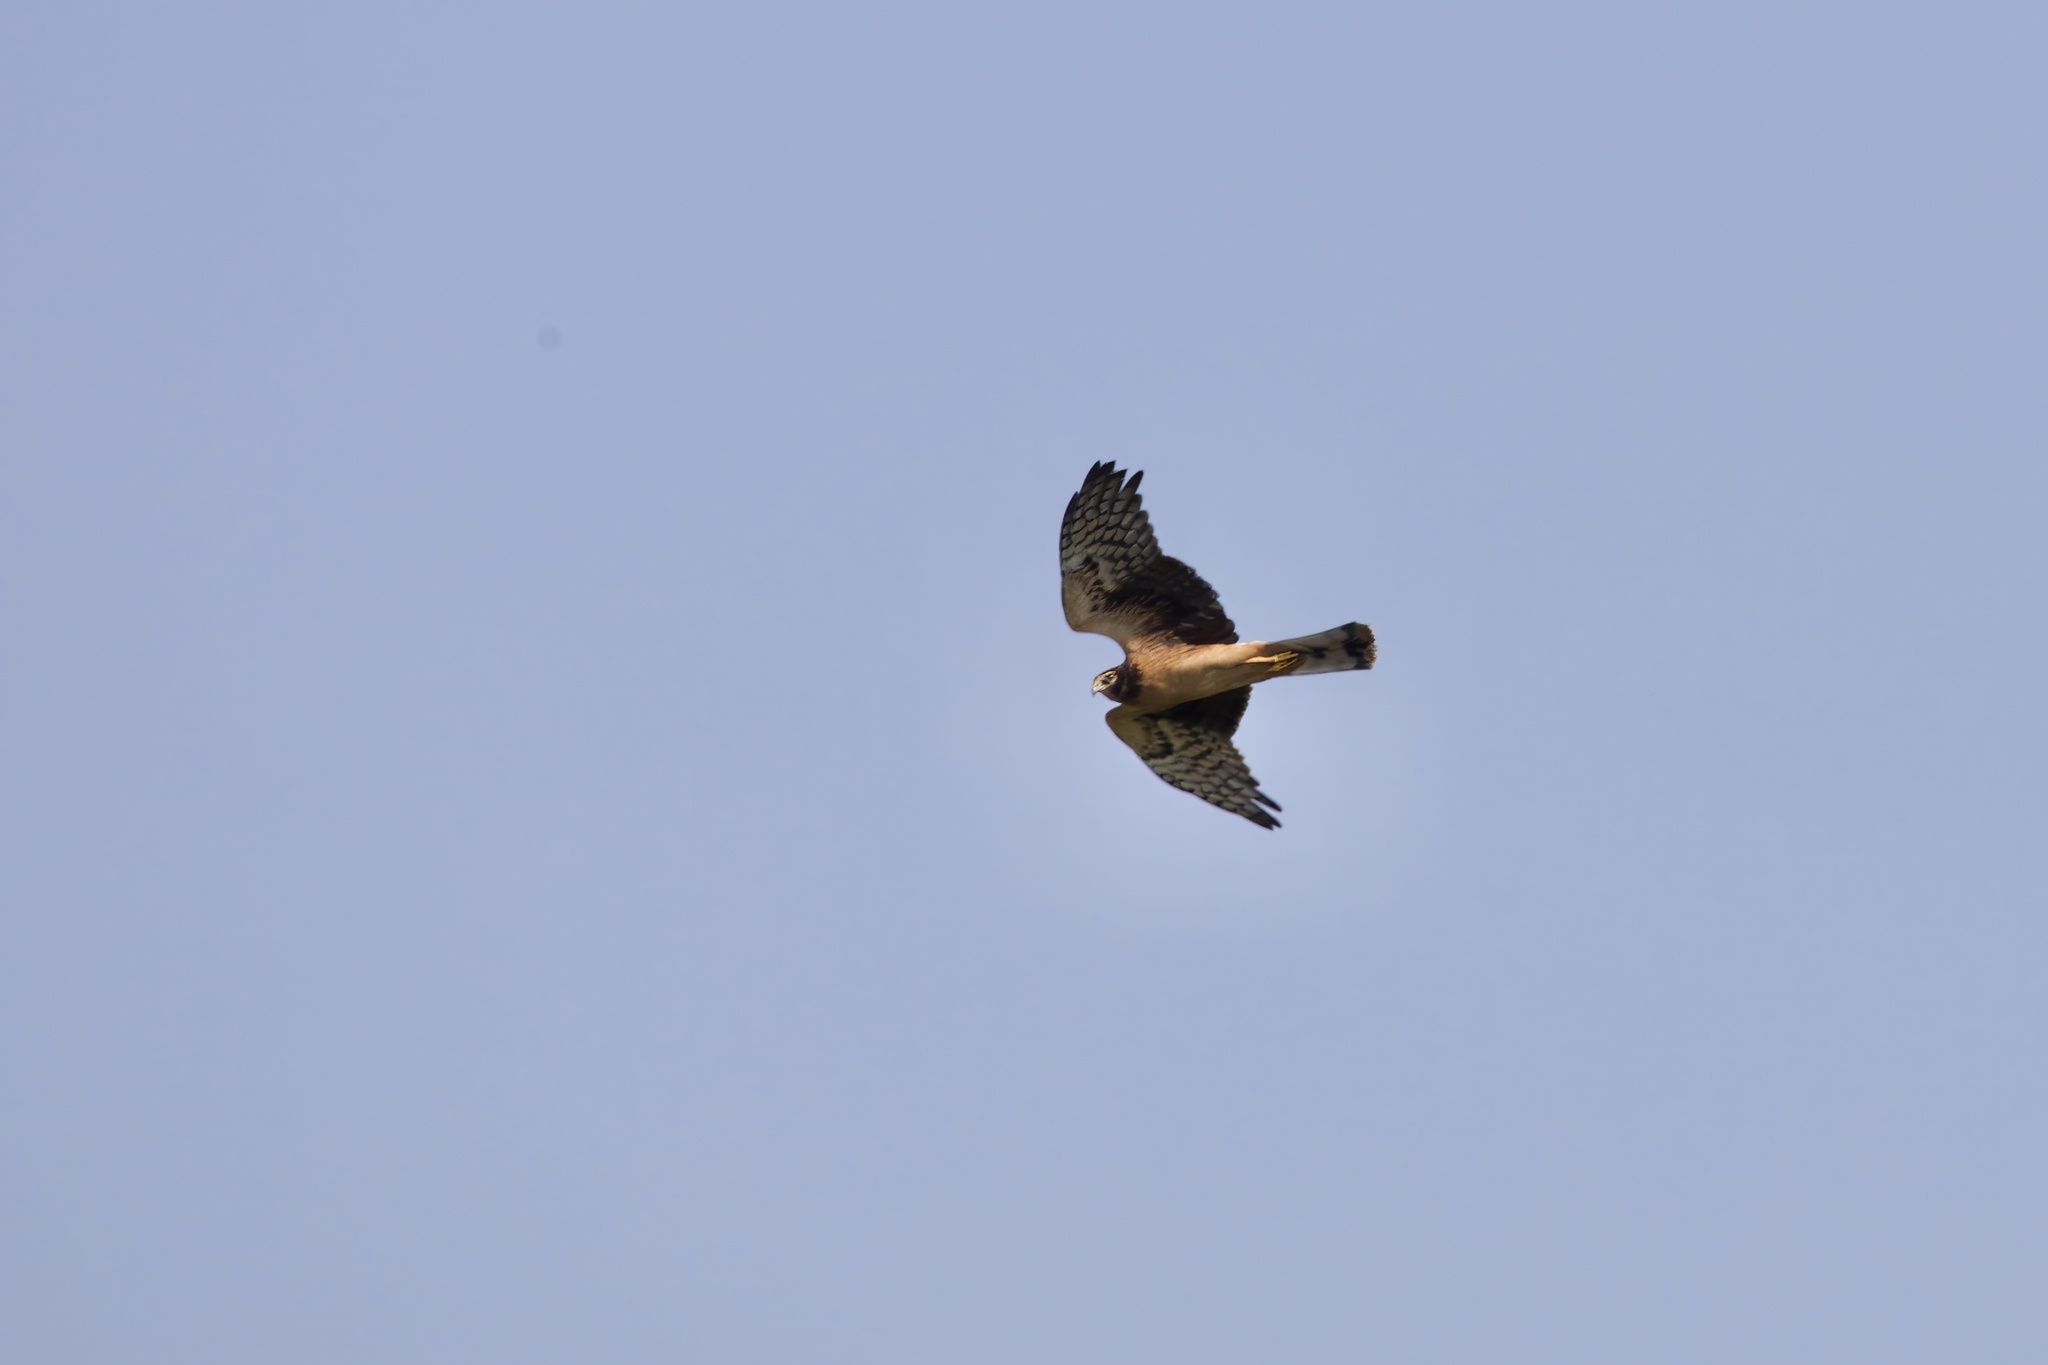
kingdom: Animalia
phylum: Chordata
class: Aves
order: Accipitriformes
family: Accipitridae
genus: Circus
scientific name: Circus cyaneus
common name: Hen harrier
